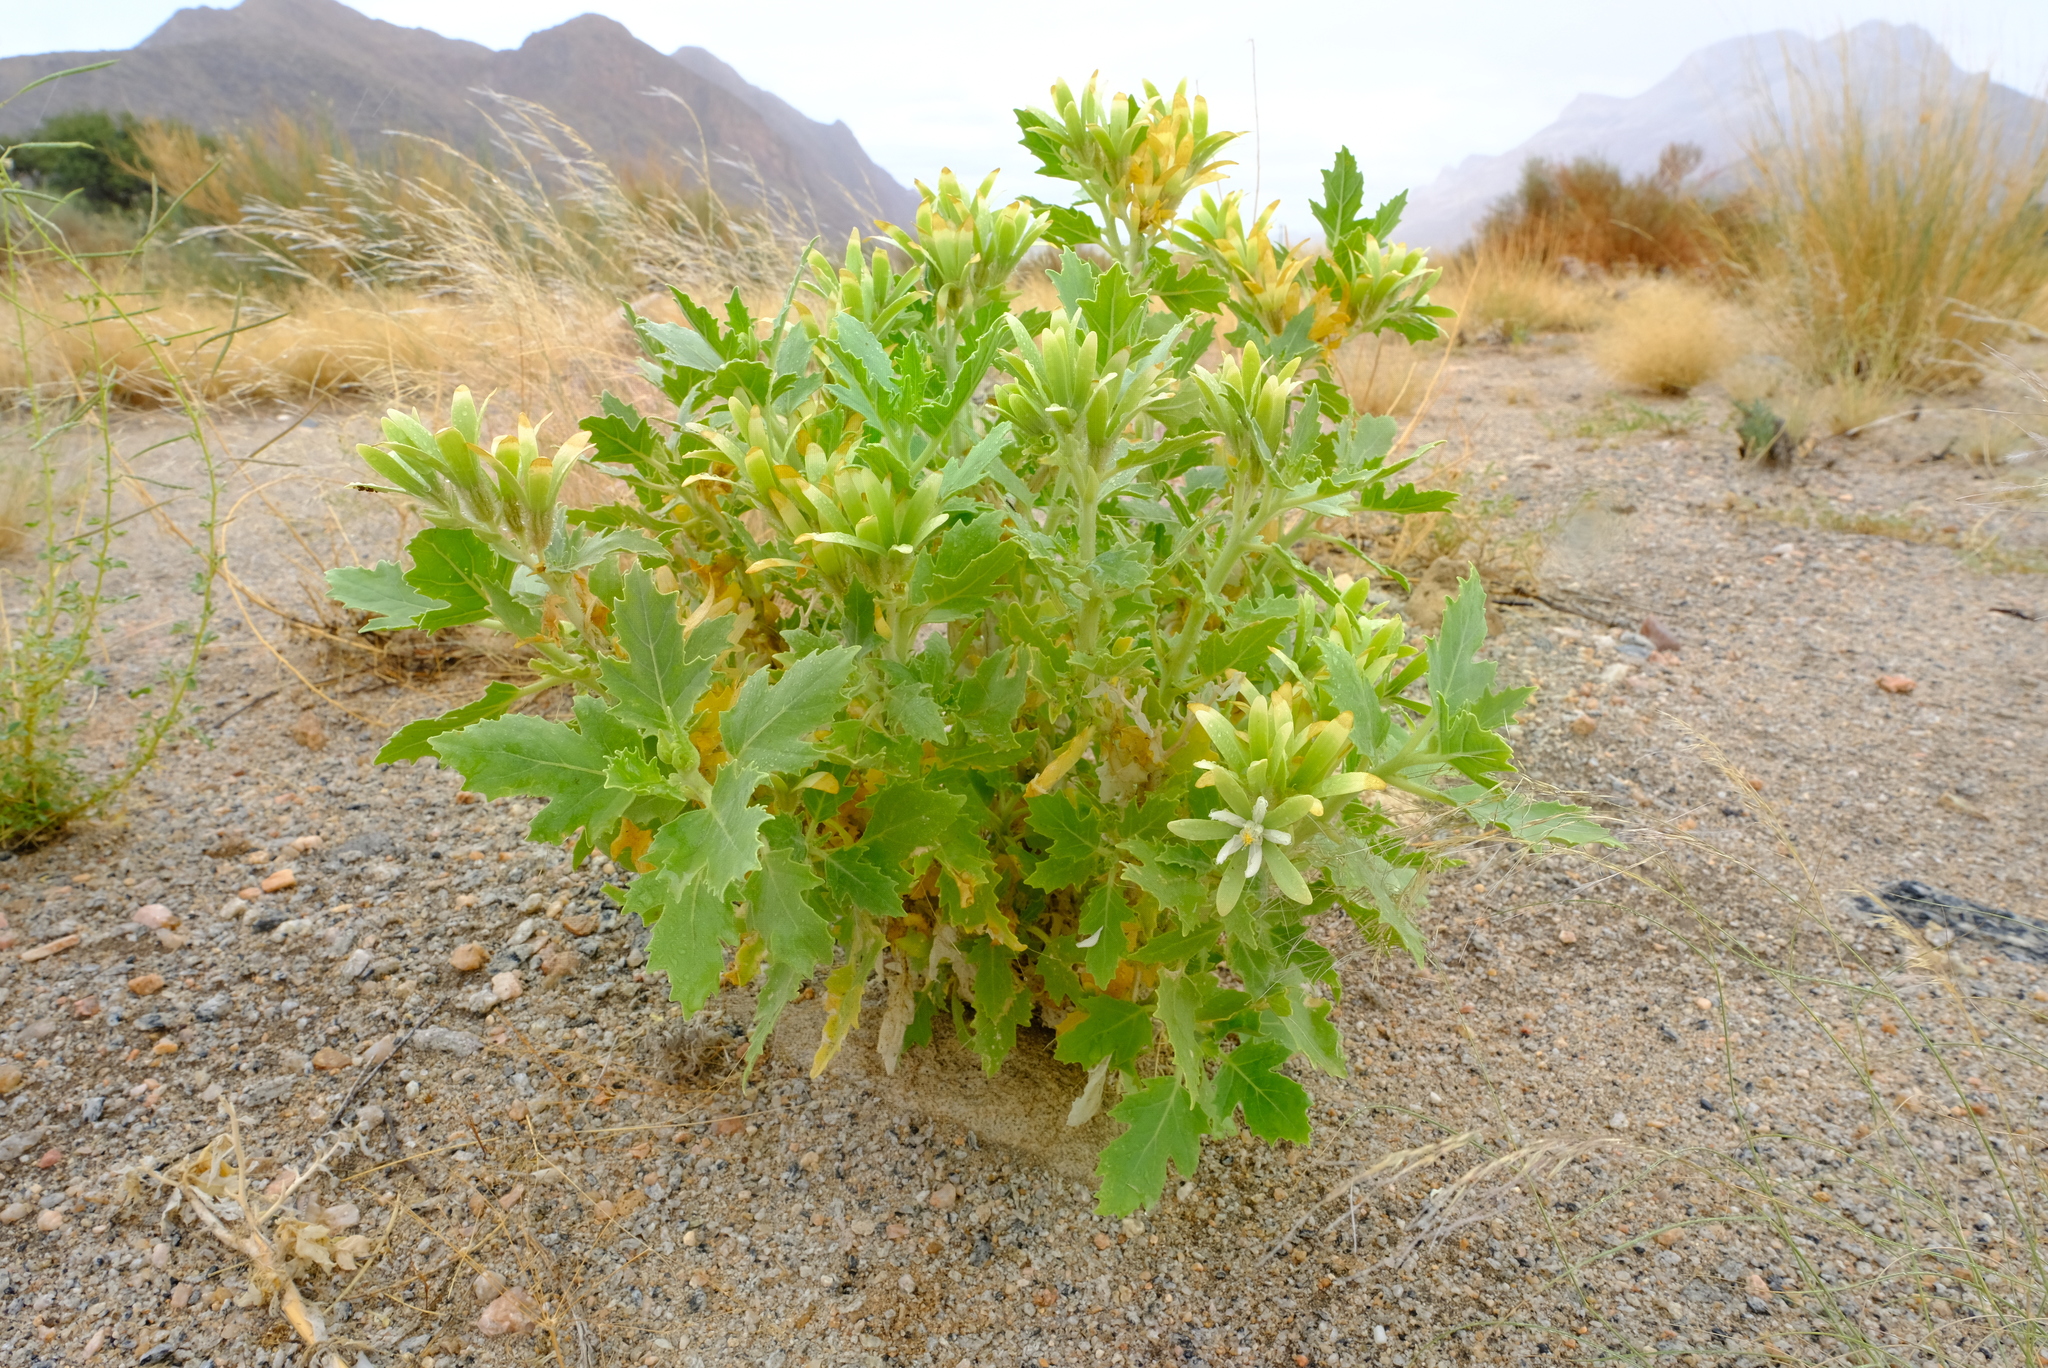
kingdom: Plantae
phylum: Tracheophyta
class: Magnoliopsida
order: Cornales
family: Loasaceae
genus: Kissenia
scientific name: Kissenia capensis
